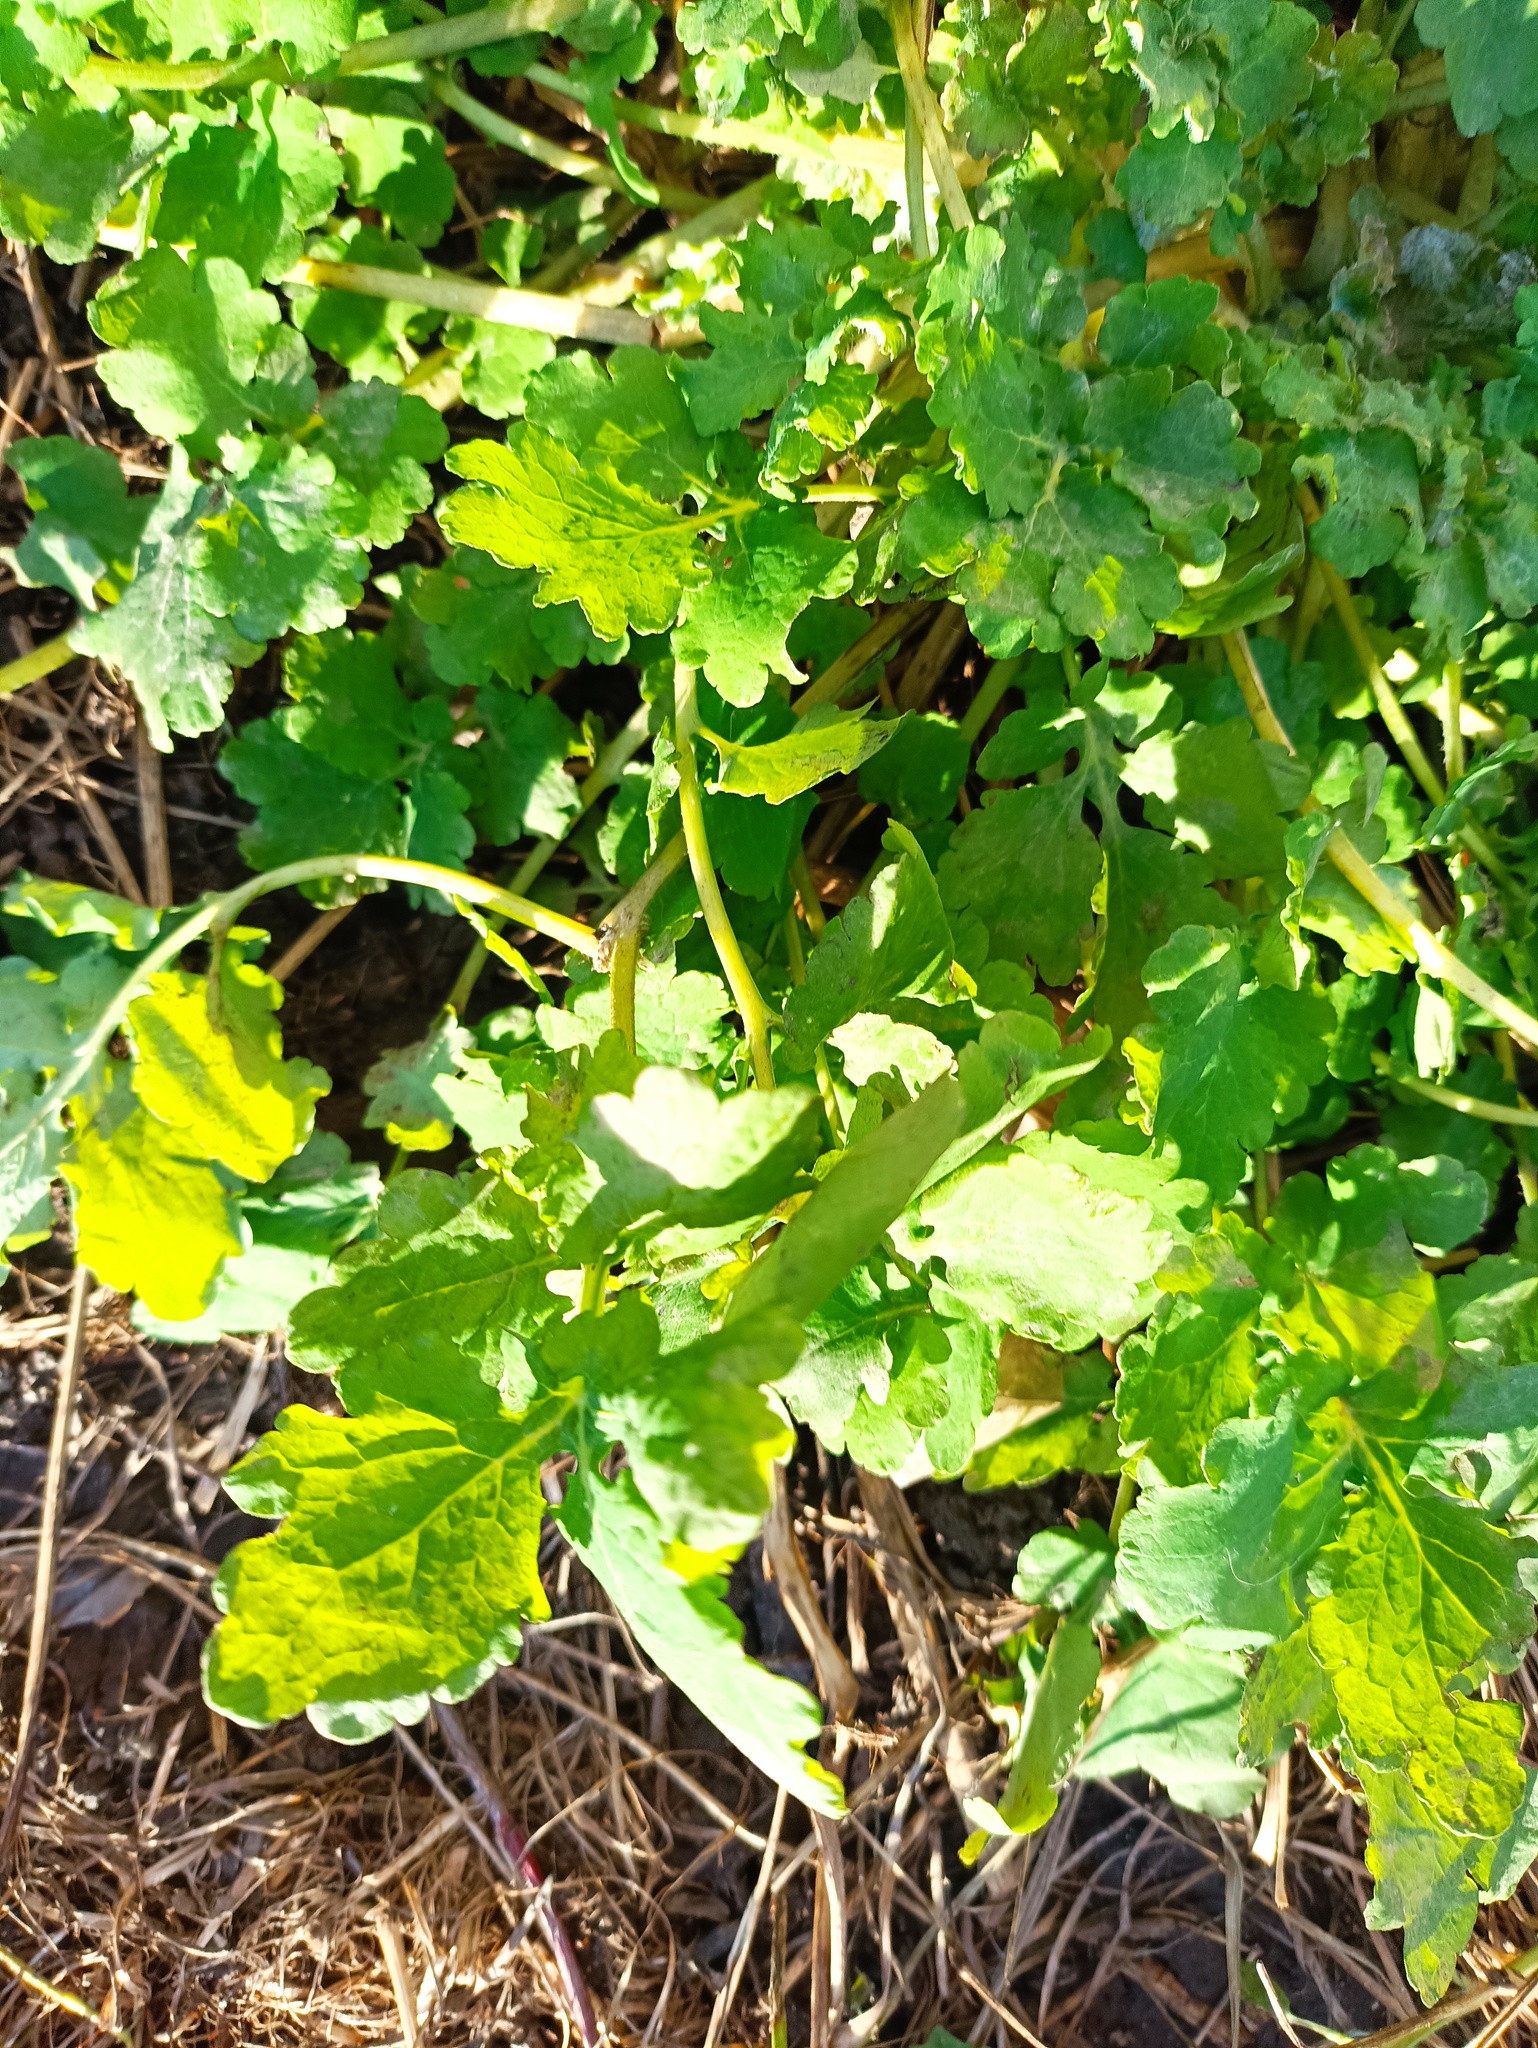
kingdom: Plantae
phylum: Tracheophyta
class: Magnoliopsida
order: Ranunculales
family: Papaveraceae
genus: Chelidonium
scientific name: Chelidonium majus
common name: Greater celandine
